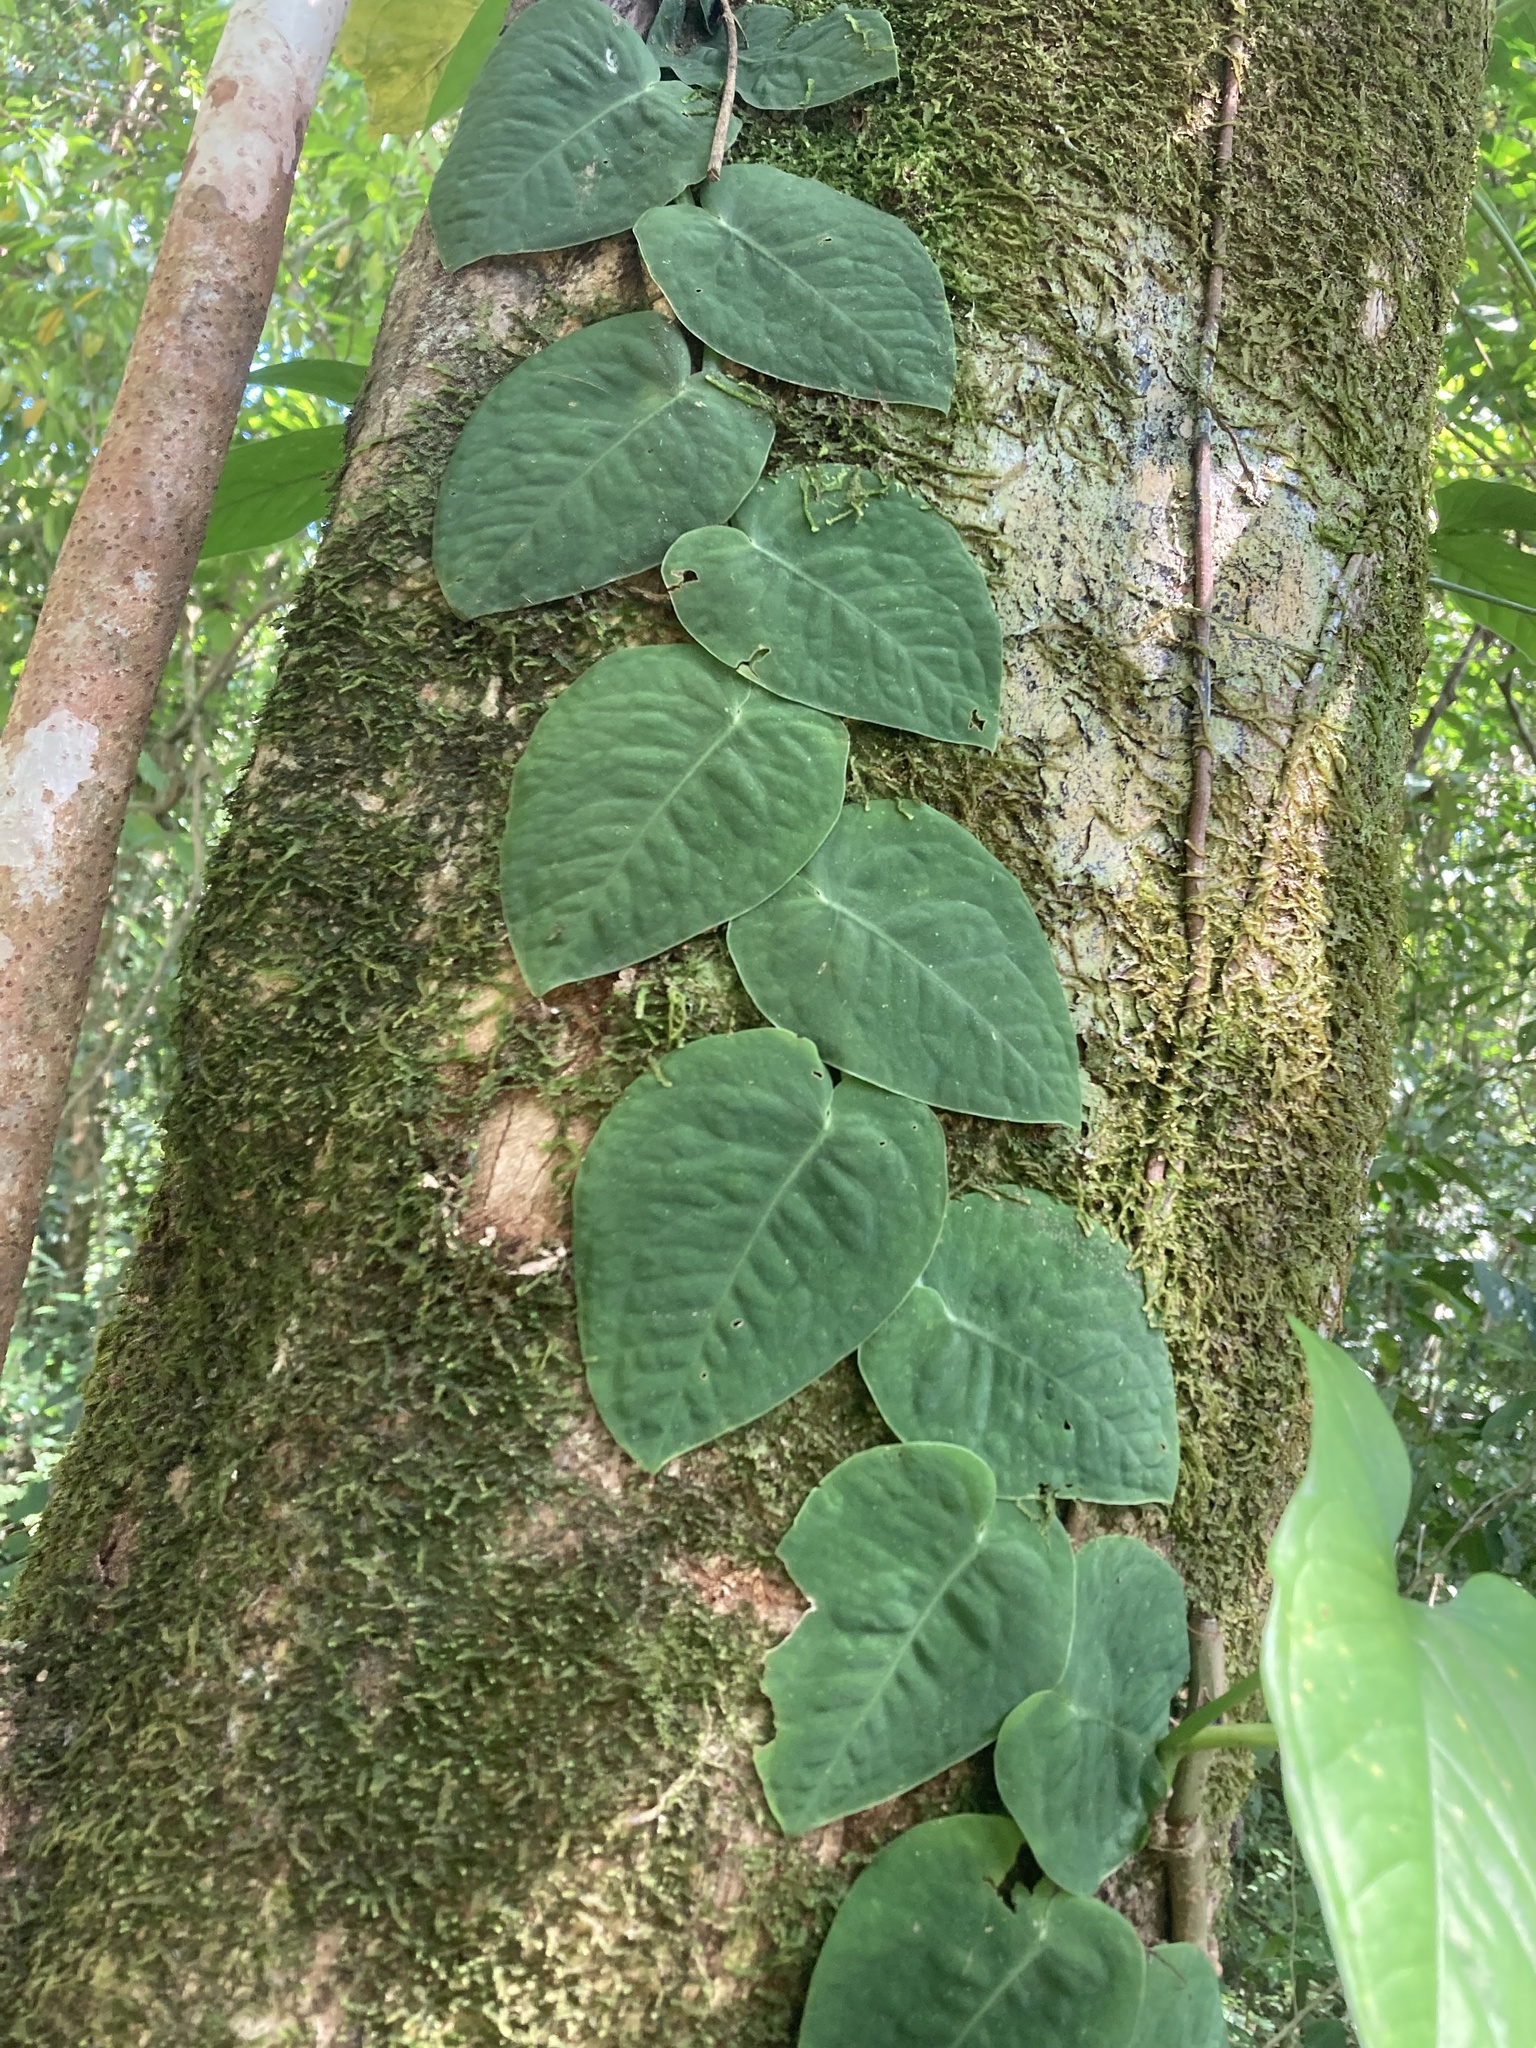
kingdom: Plantae
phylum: Tracheophyta
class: Liliopsida
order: Alismatales
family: Araceae
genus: Monstera
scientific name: Monstera dubia
